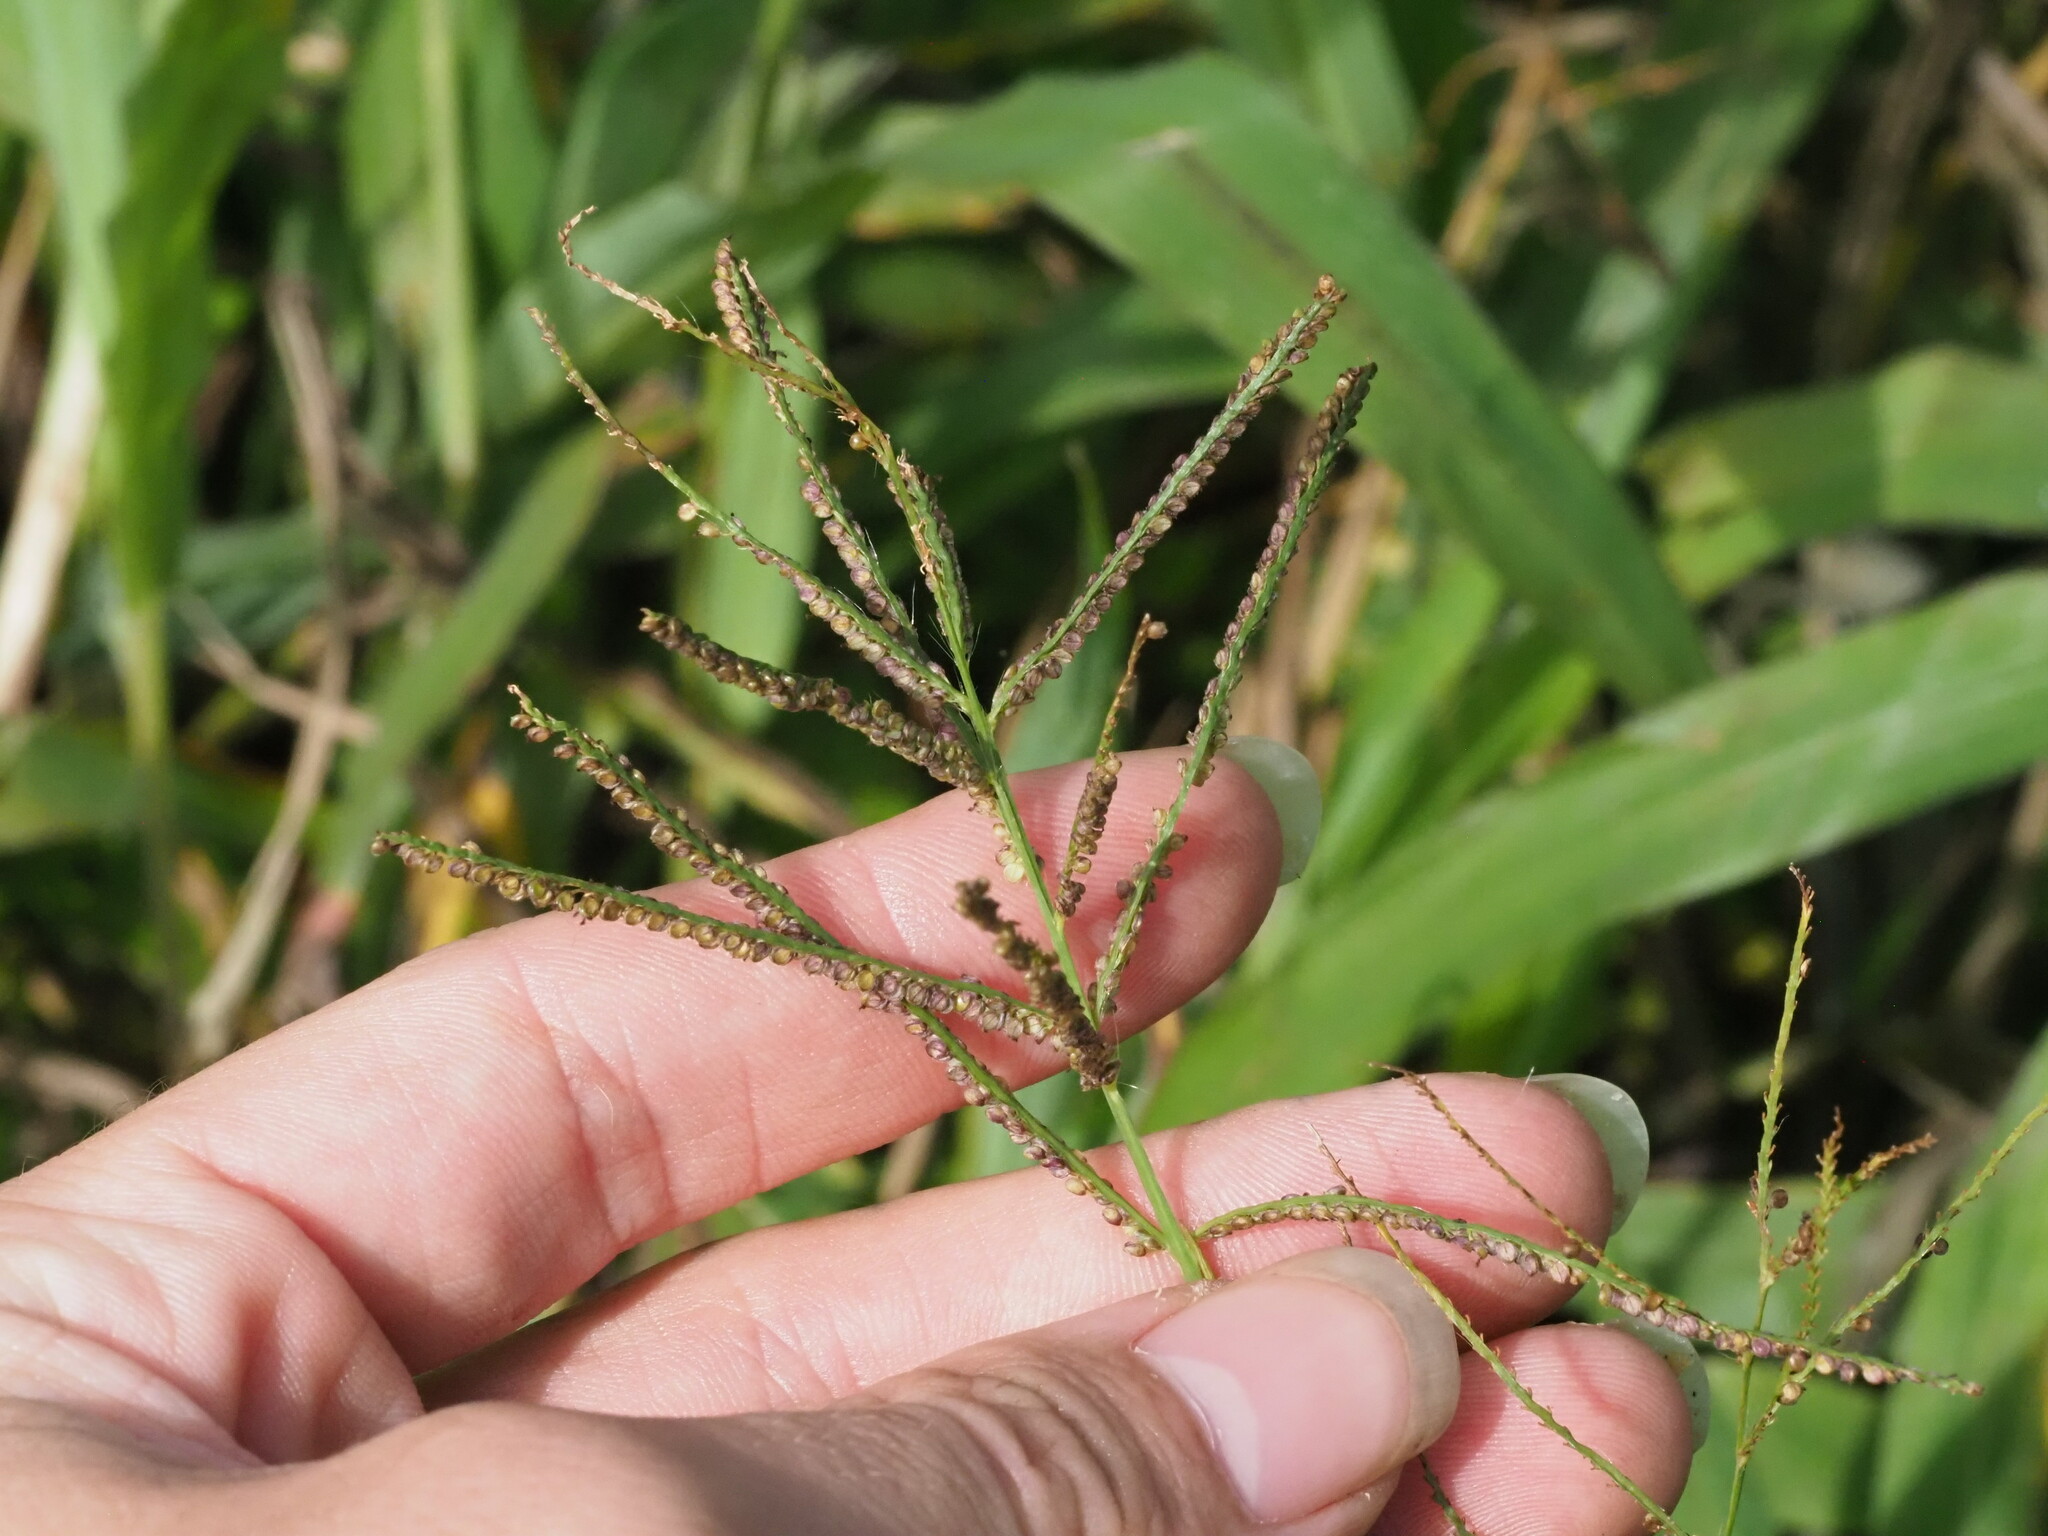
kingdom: Plantae
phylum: Tracheophyta
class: Liliopsida
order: Poales
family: Poaceae
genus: Paspalum
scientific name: Paspalum paniculatum
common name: Arrocillo
